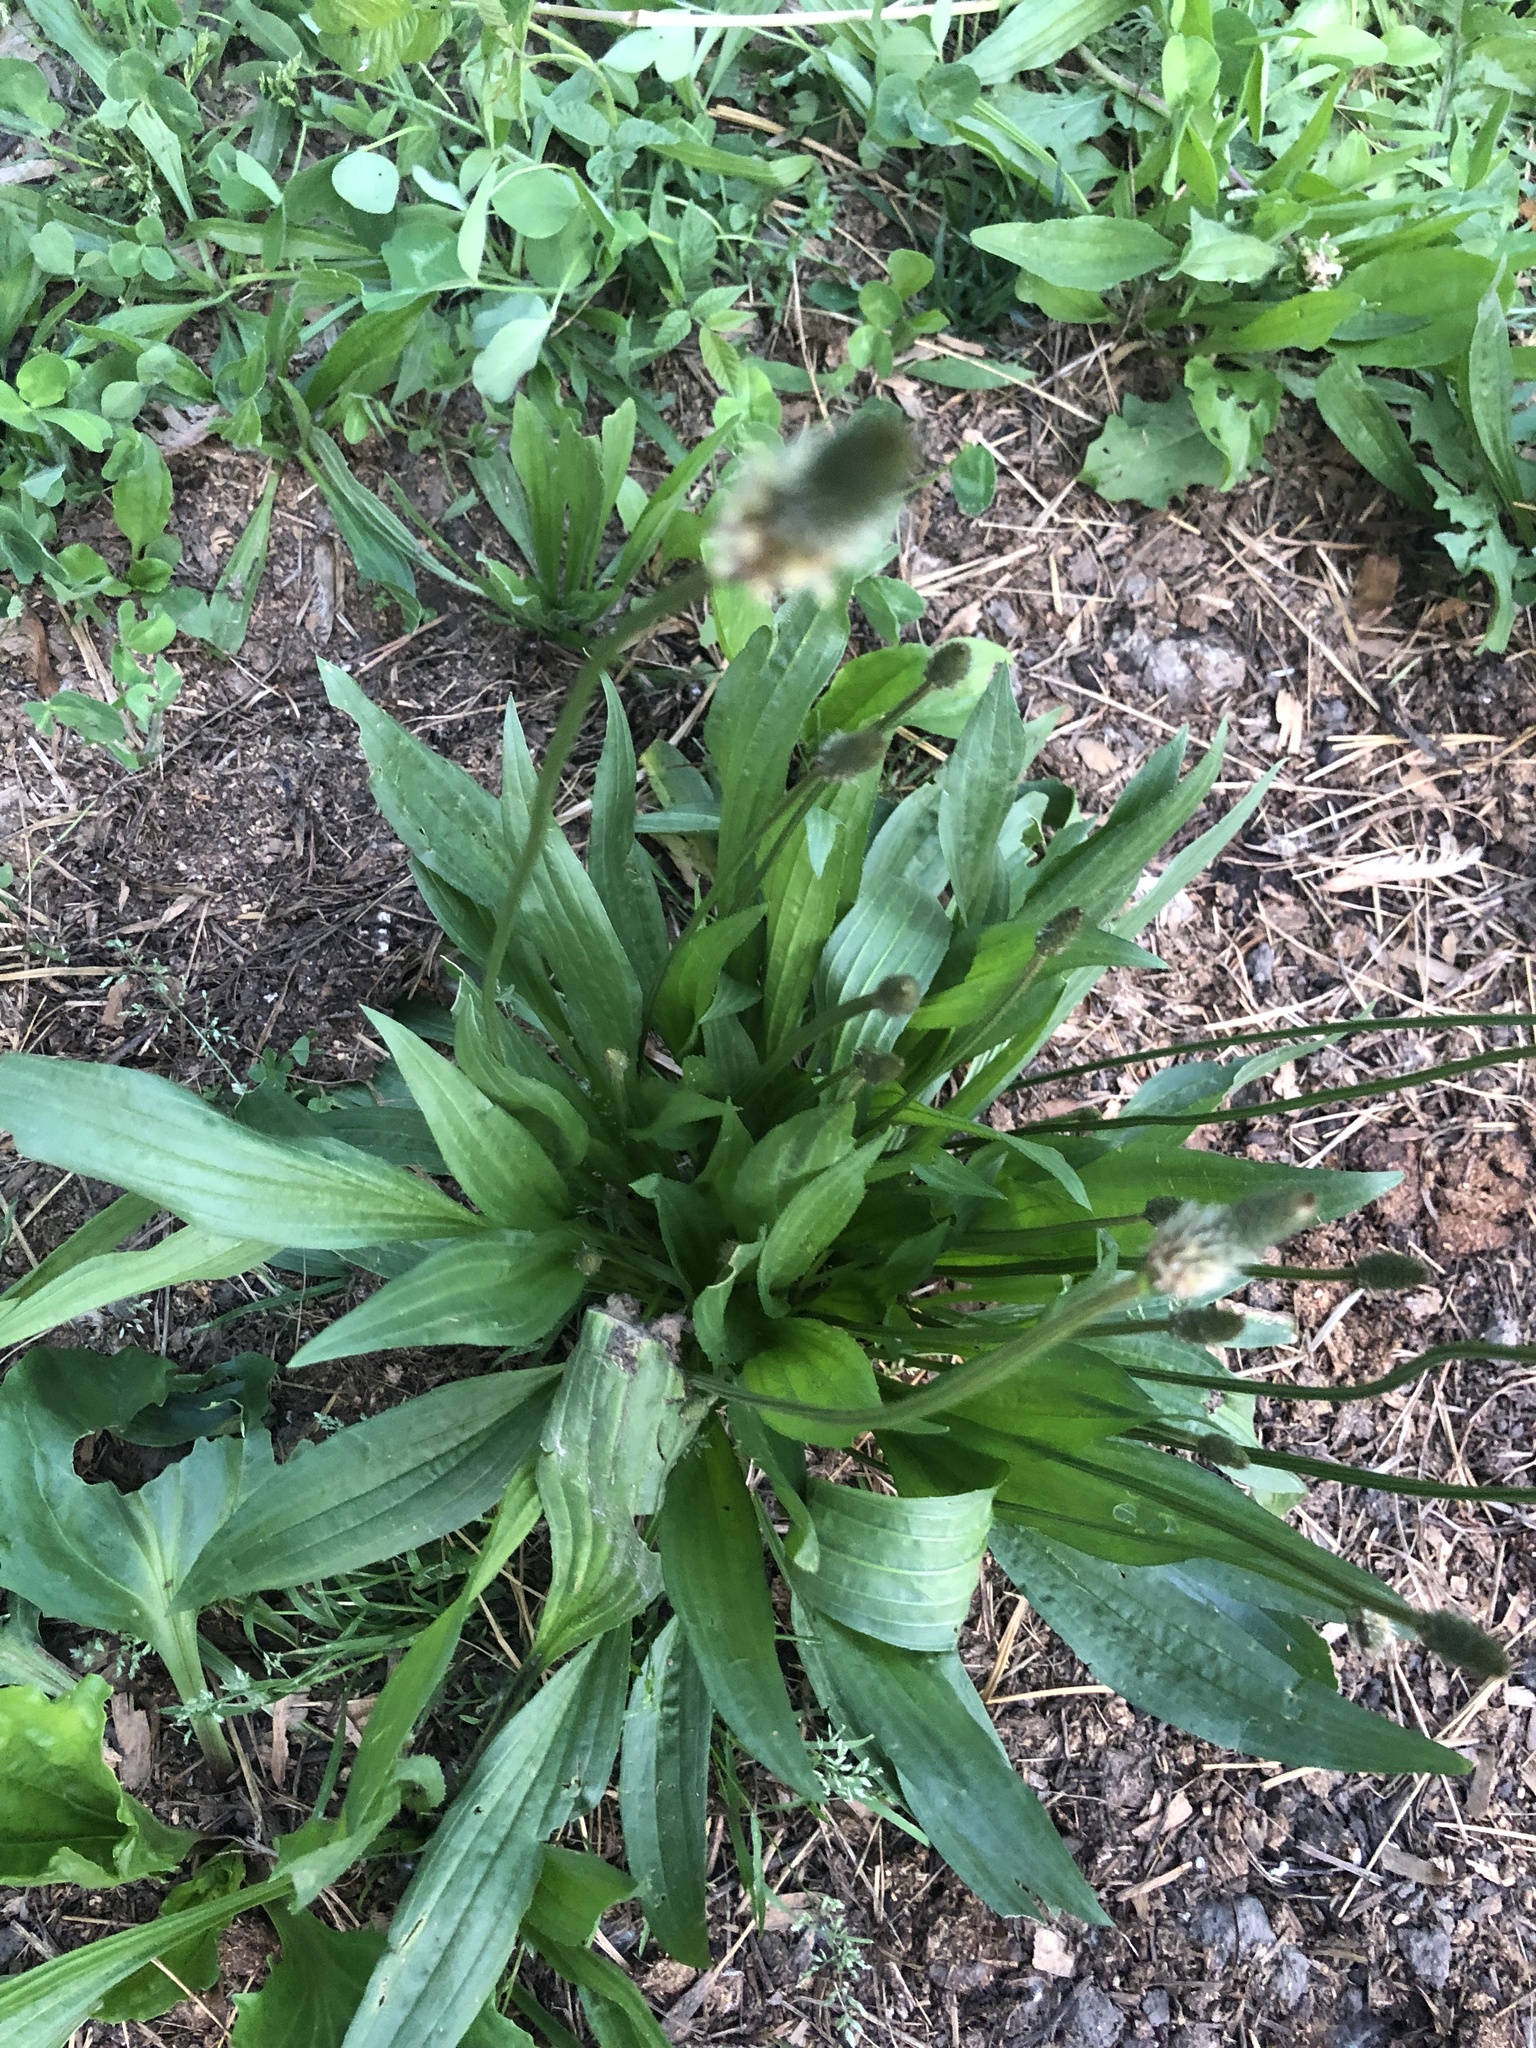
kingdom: Plantae
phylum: Tracheophyta
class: Magnoliopsida
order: Lamiales
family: Plantaginaceae
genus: Plantago
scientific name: Plantago lanceolata
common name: Ribwort plantain
